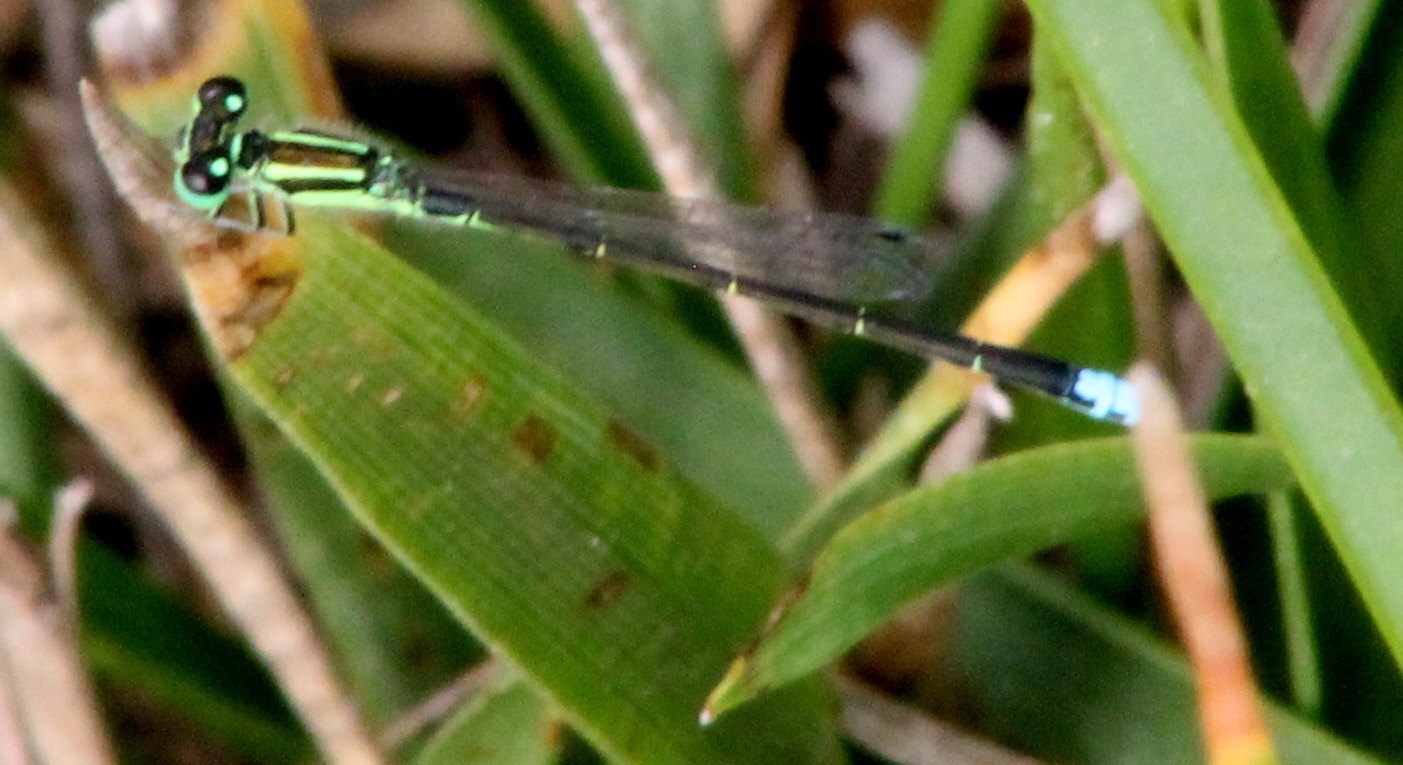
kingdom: Animalia
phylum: Arthropoda
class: Insecta
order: Odonata
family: Coenagrionidae
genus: Ischnura
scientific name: Ischnura verticalis
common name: Eastern forktail
